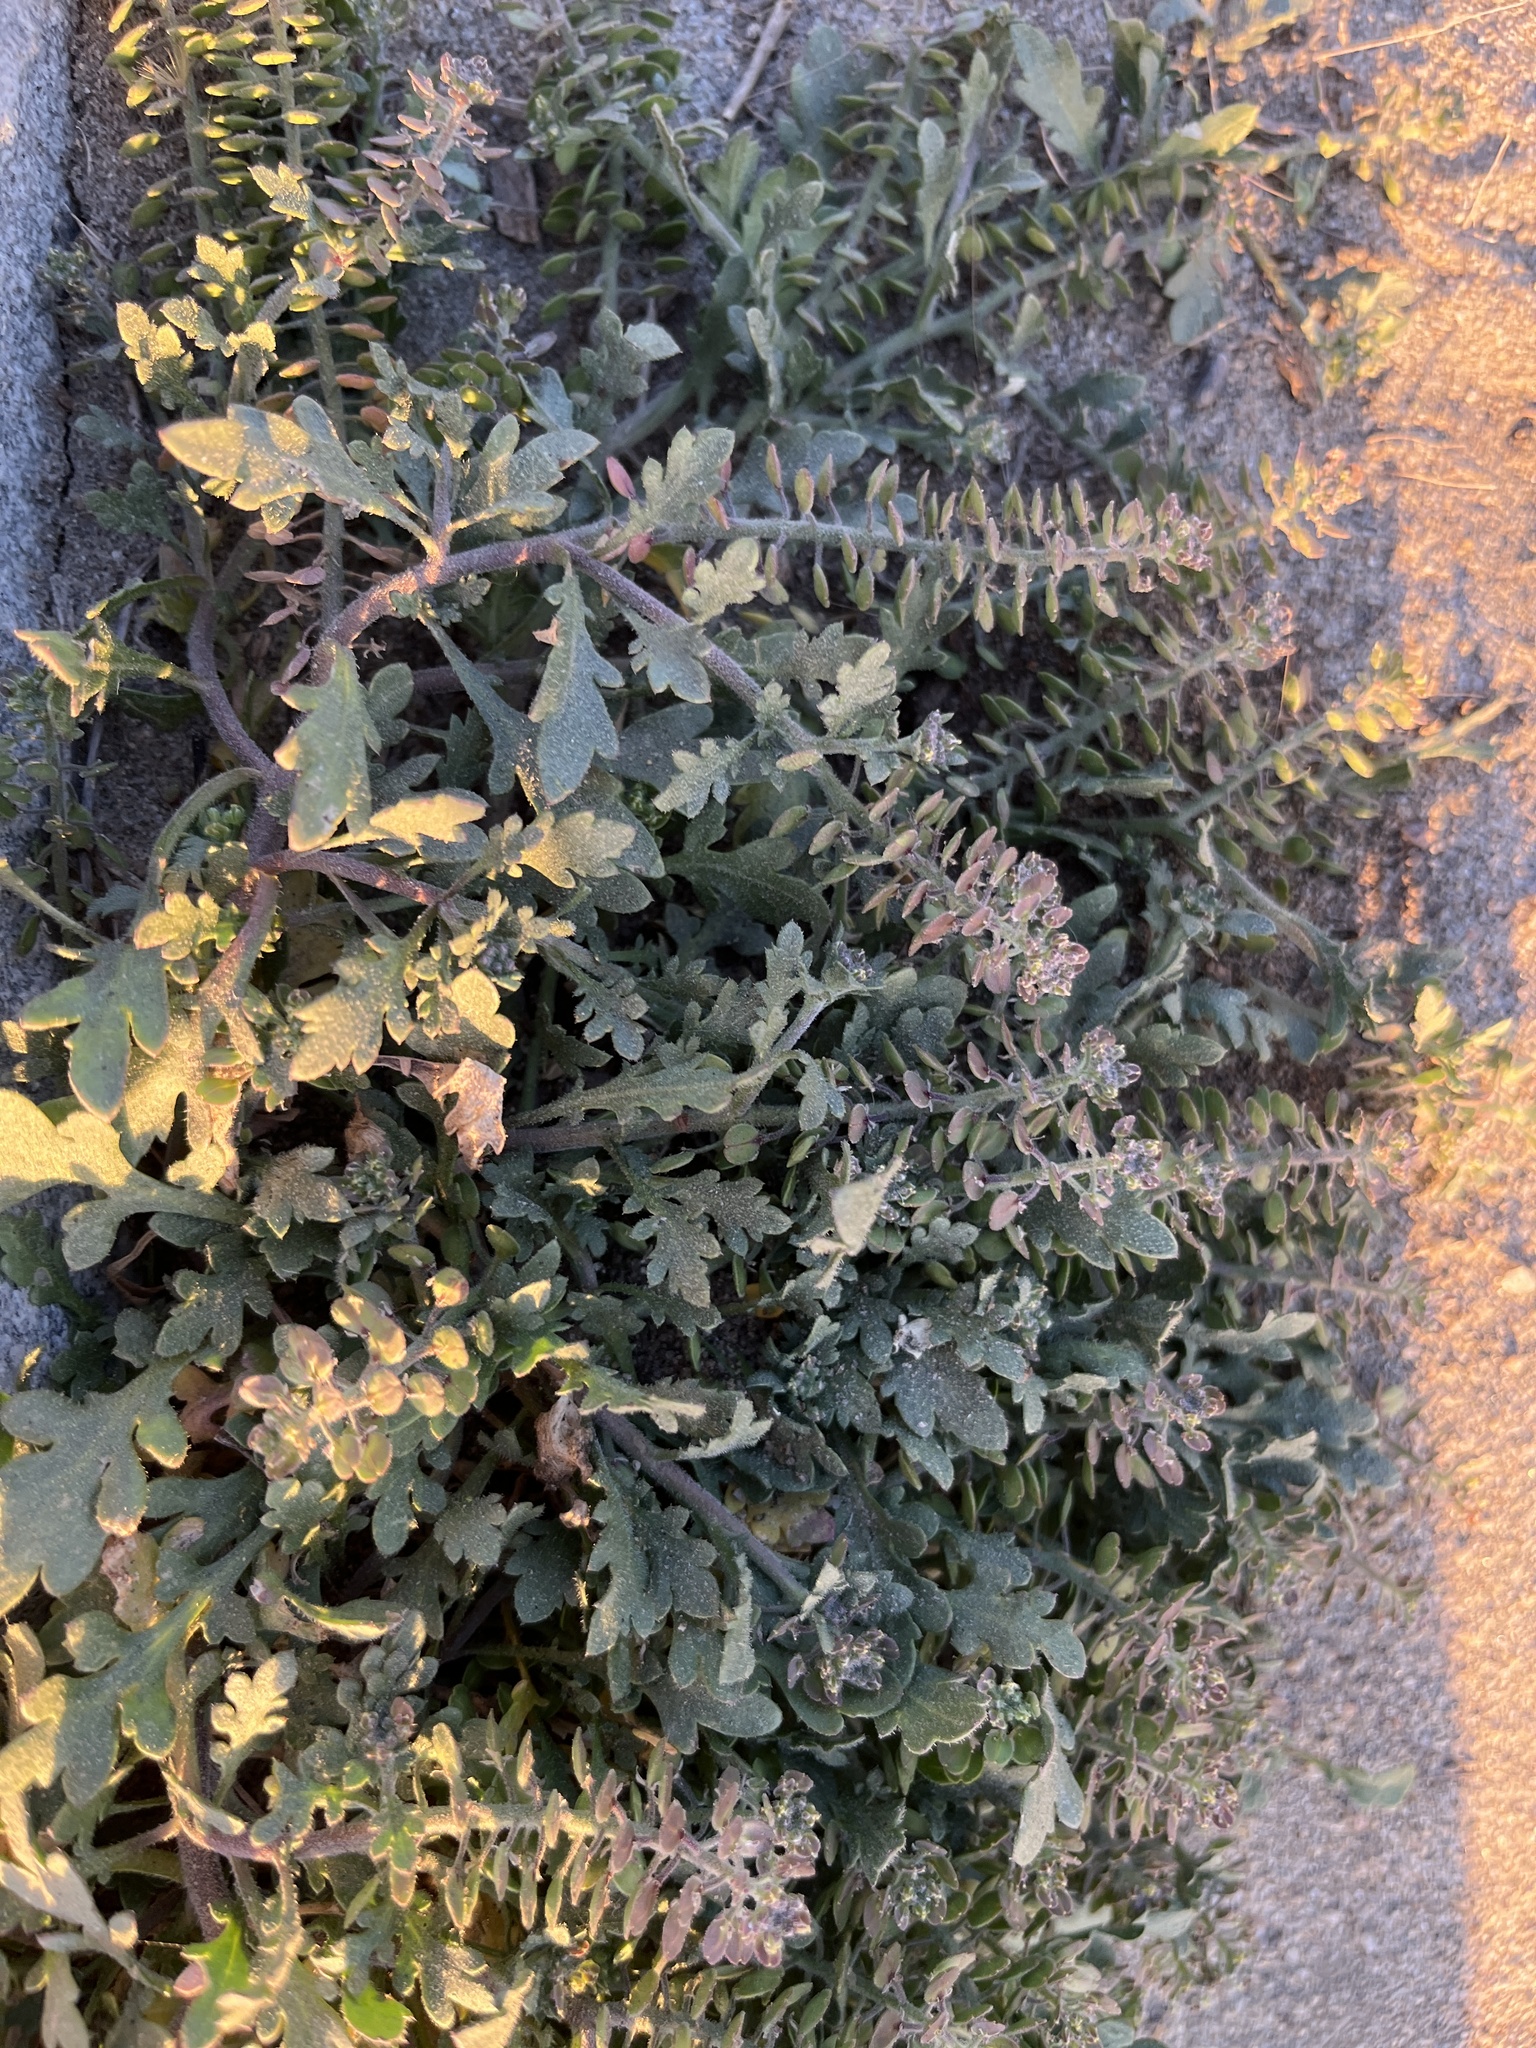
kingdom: Plantae
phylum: Tracheophyta
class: Magnoliopsida
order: Brassicales
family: Brassicaceae
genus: Lepidium
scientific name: Lepidium lasiocarpum
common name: Hairy-pod pepperwort
